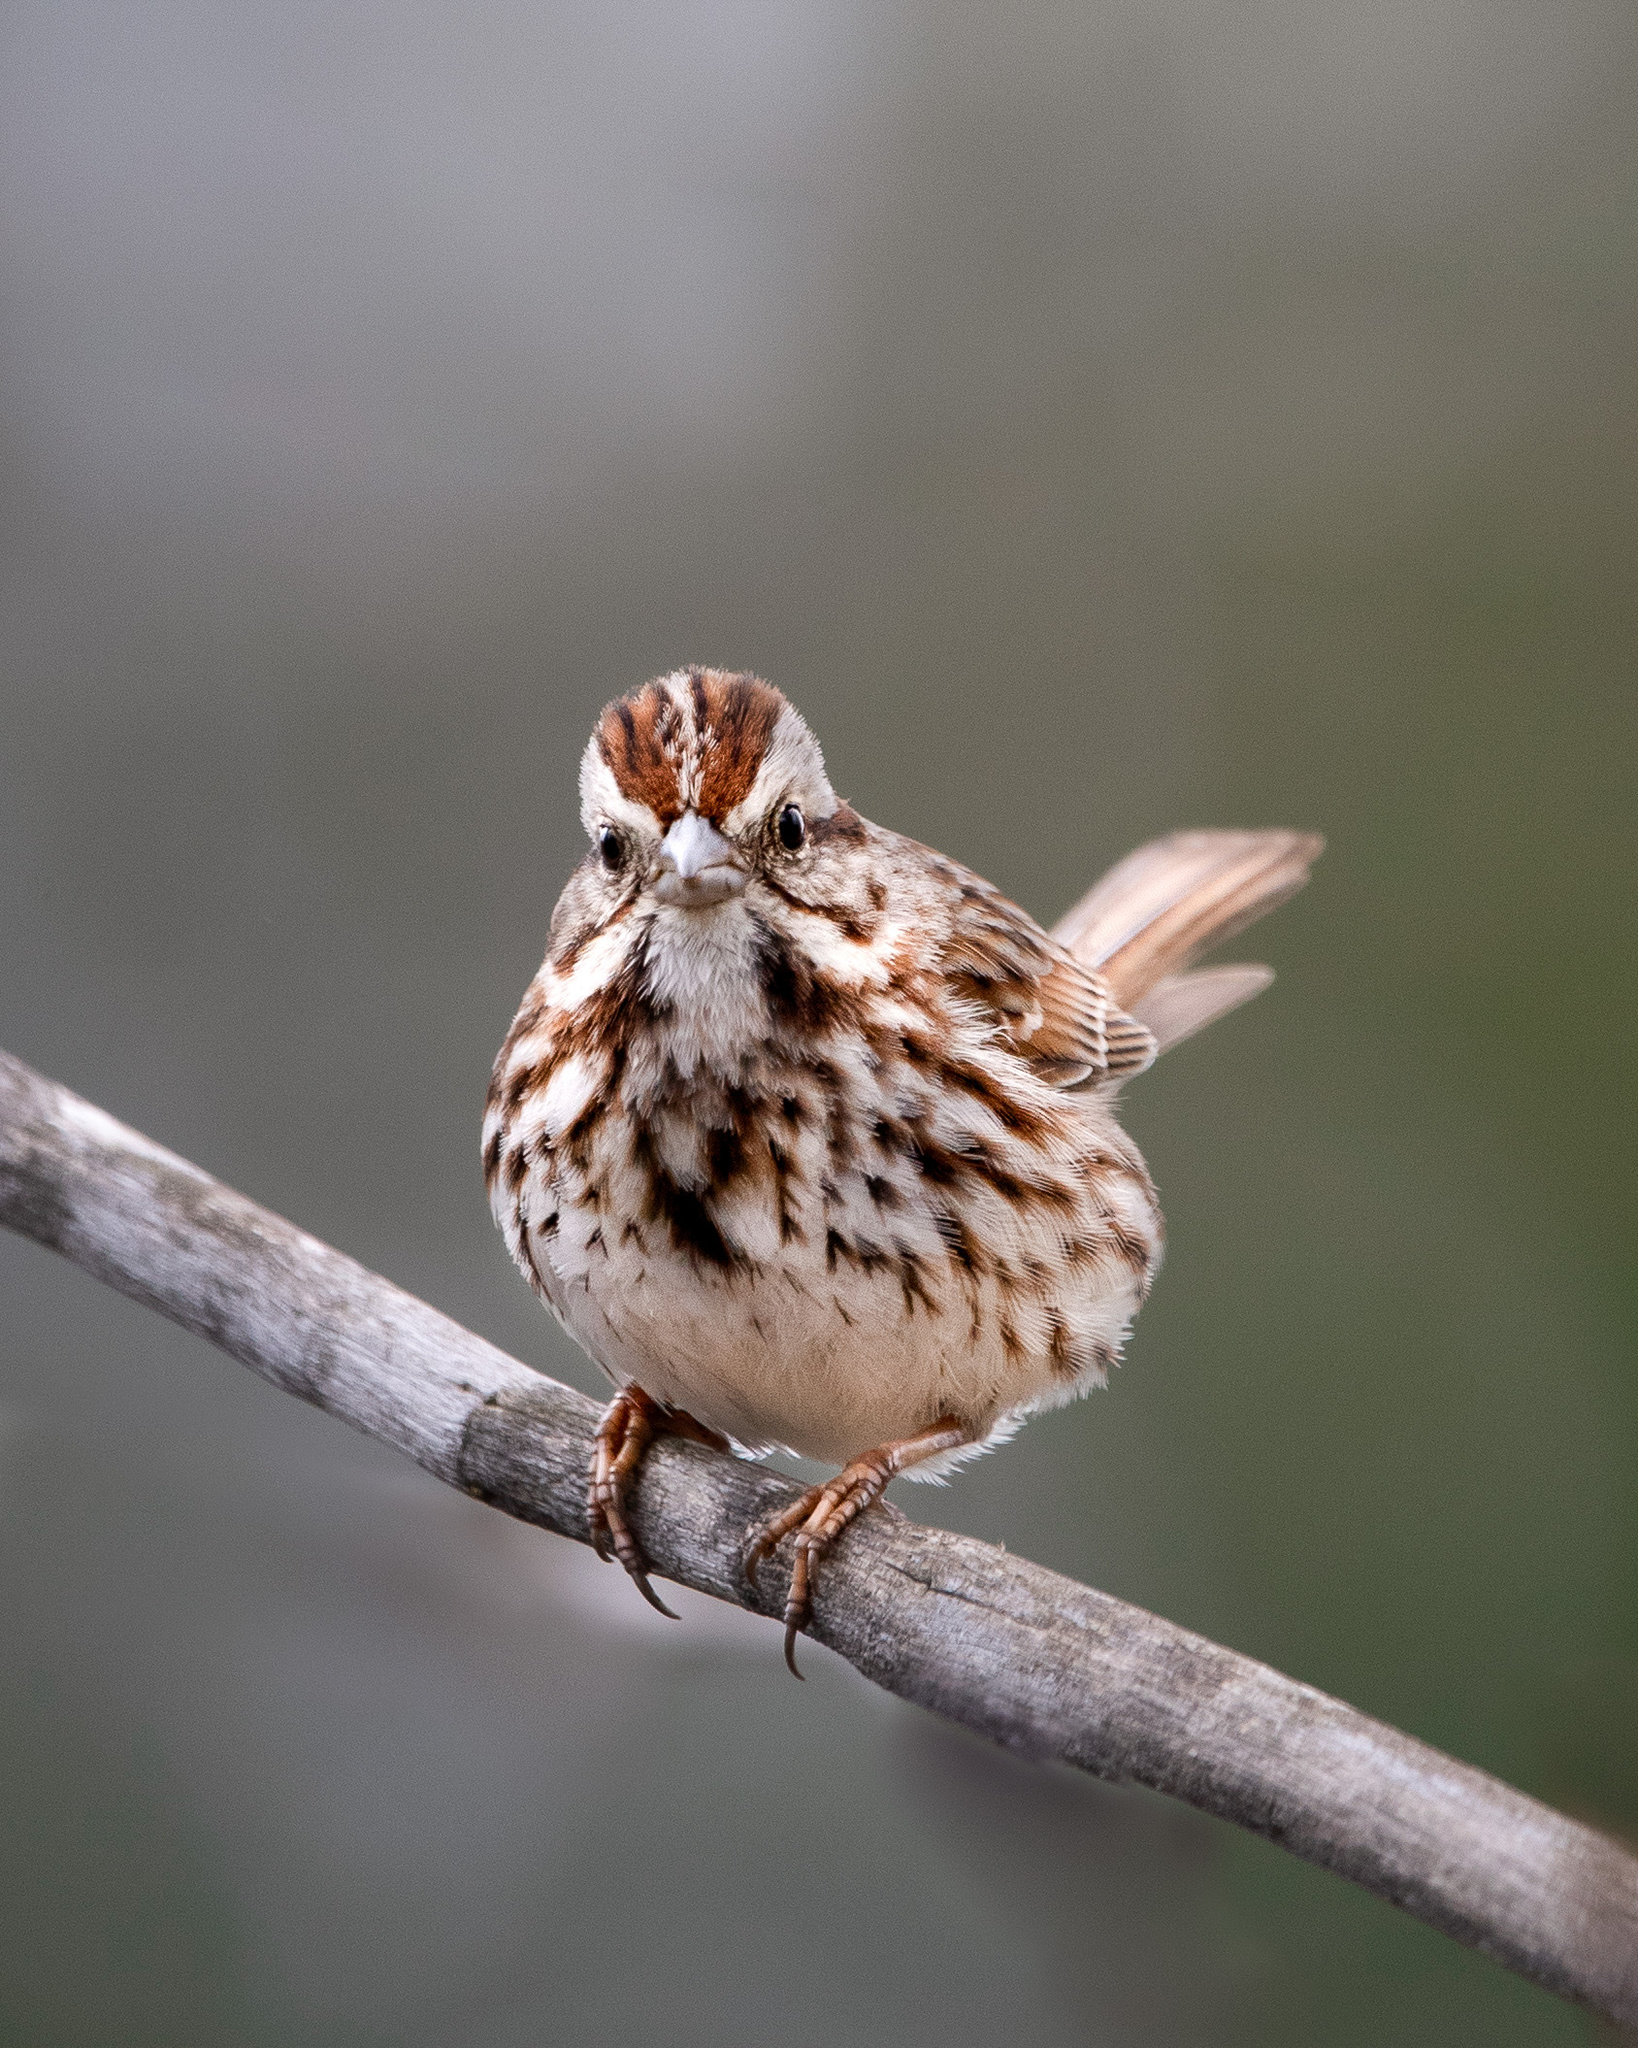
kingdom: Animalia
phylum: Chordata
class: Aves
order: Passeriformes
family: Passerellidae
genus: Melospiza
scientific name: Melospiza melodia
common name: Song sparrow
